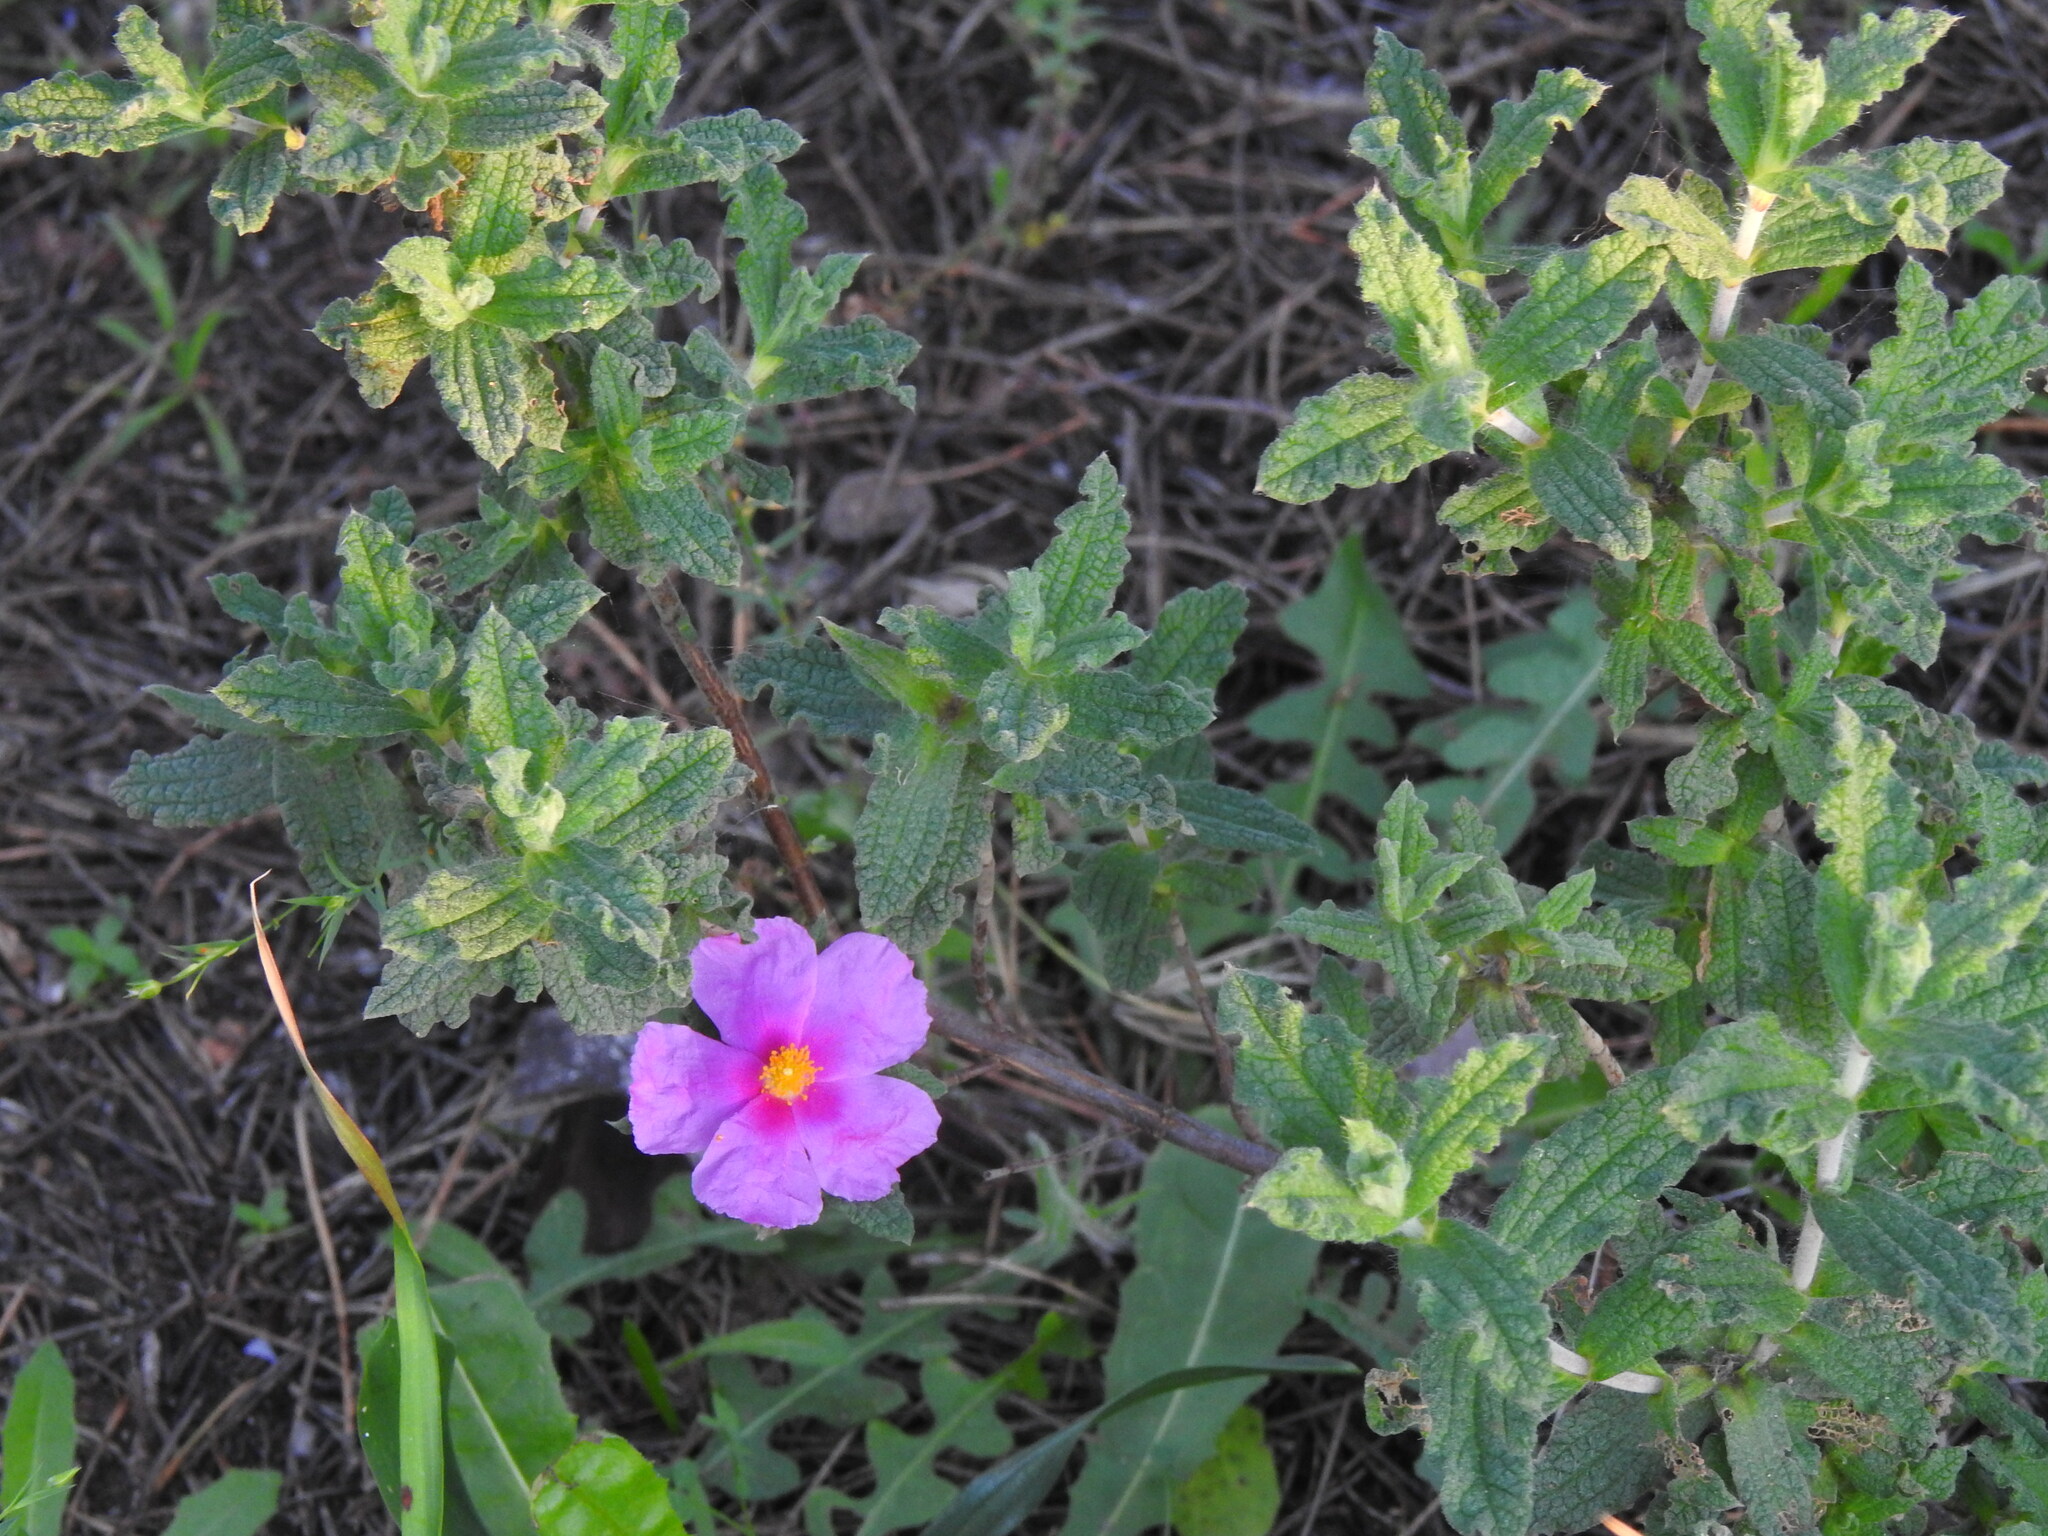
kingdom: Plantae
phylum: Tracheophyta
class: Magnoliopsida
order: Malvales
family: Cistaceae
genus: Cistus
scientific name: Cistus crispus
